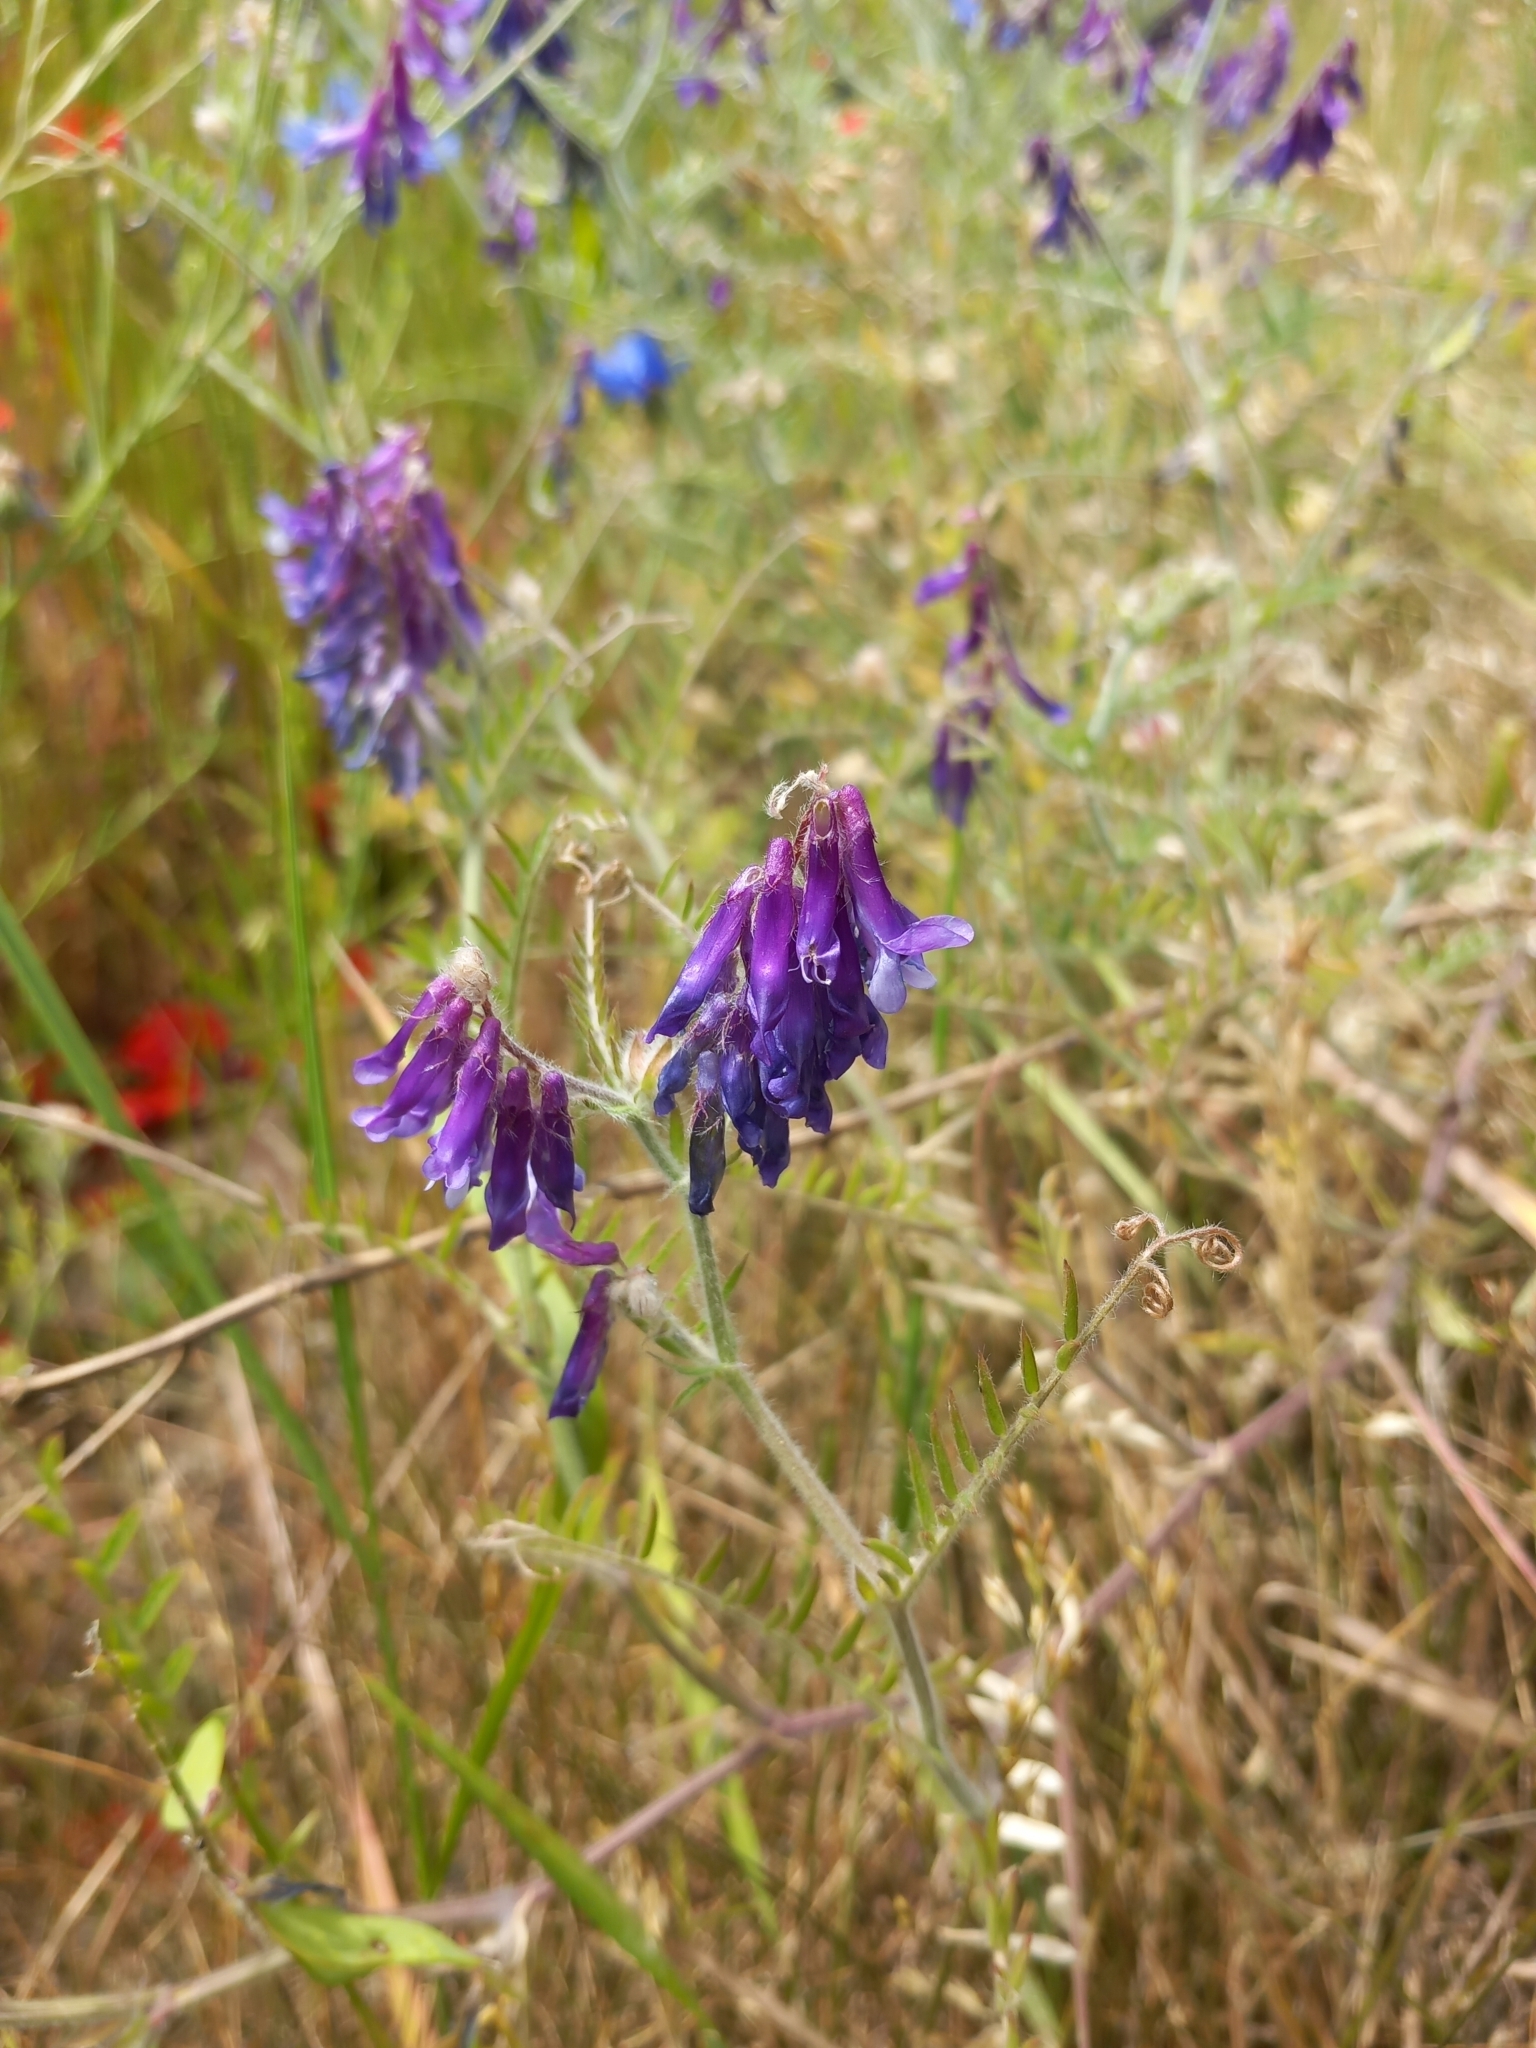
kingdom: Plantae
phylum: Tracheophyta
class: Magnoliopsida
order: Fabales
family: Fabaceae
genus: Vicia
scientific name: Vicia villosa
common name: Fodder vetch
